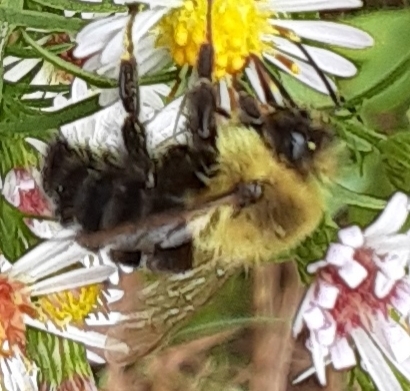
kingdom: Animalia
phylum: Arthropoda
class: Insecta
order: Hymenoptera
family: Apidae
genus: Bombus
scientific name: Bombus impatiens
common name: Common eastern bumble bee
